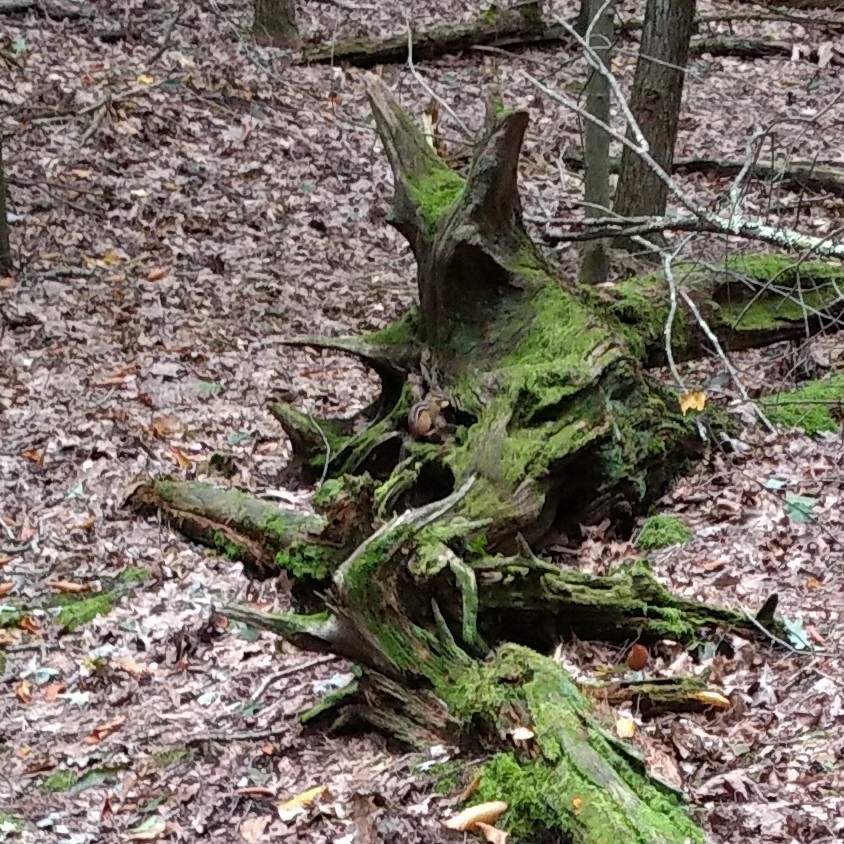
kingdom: Animalia
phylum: Chordata
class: Mammalia
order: Rodentia
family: Sciuridae
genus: Tamias
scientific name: Tamias striatus
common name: Eastern chipmunk
